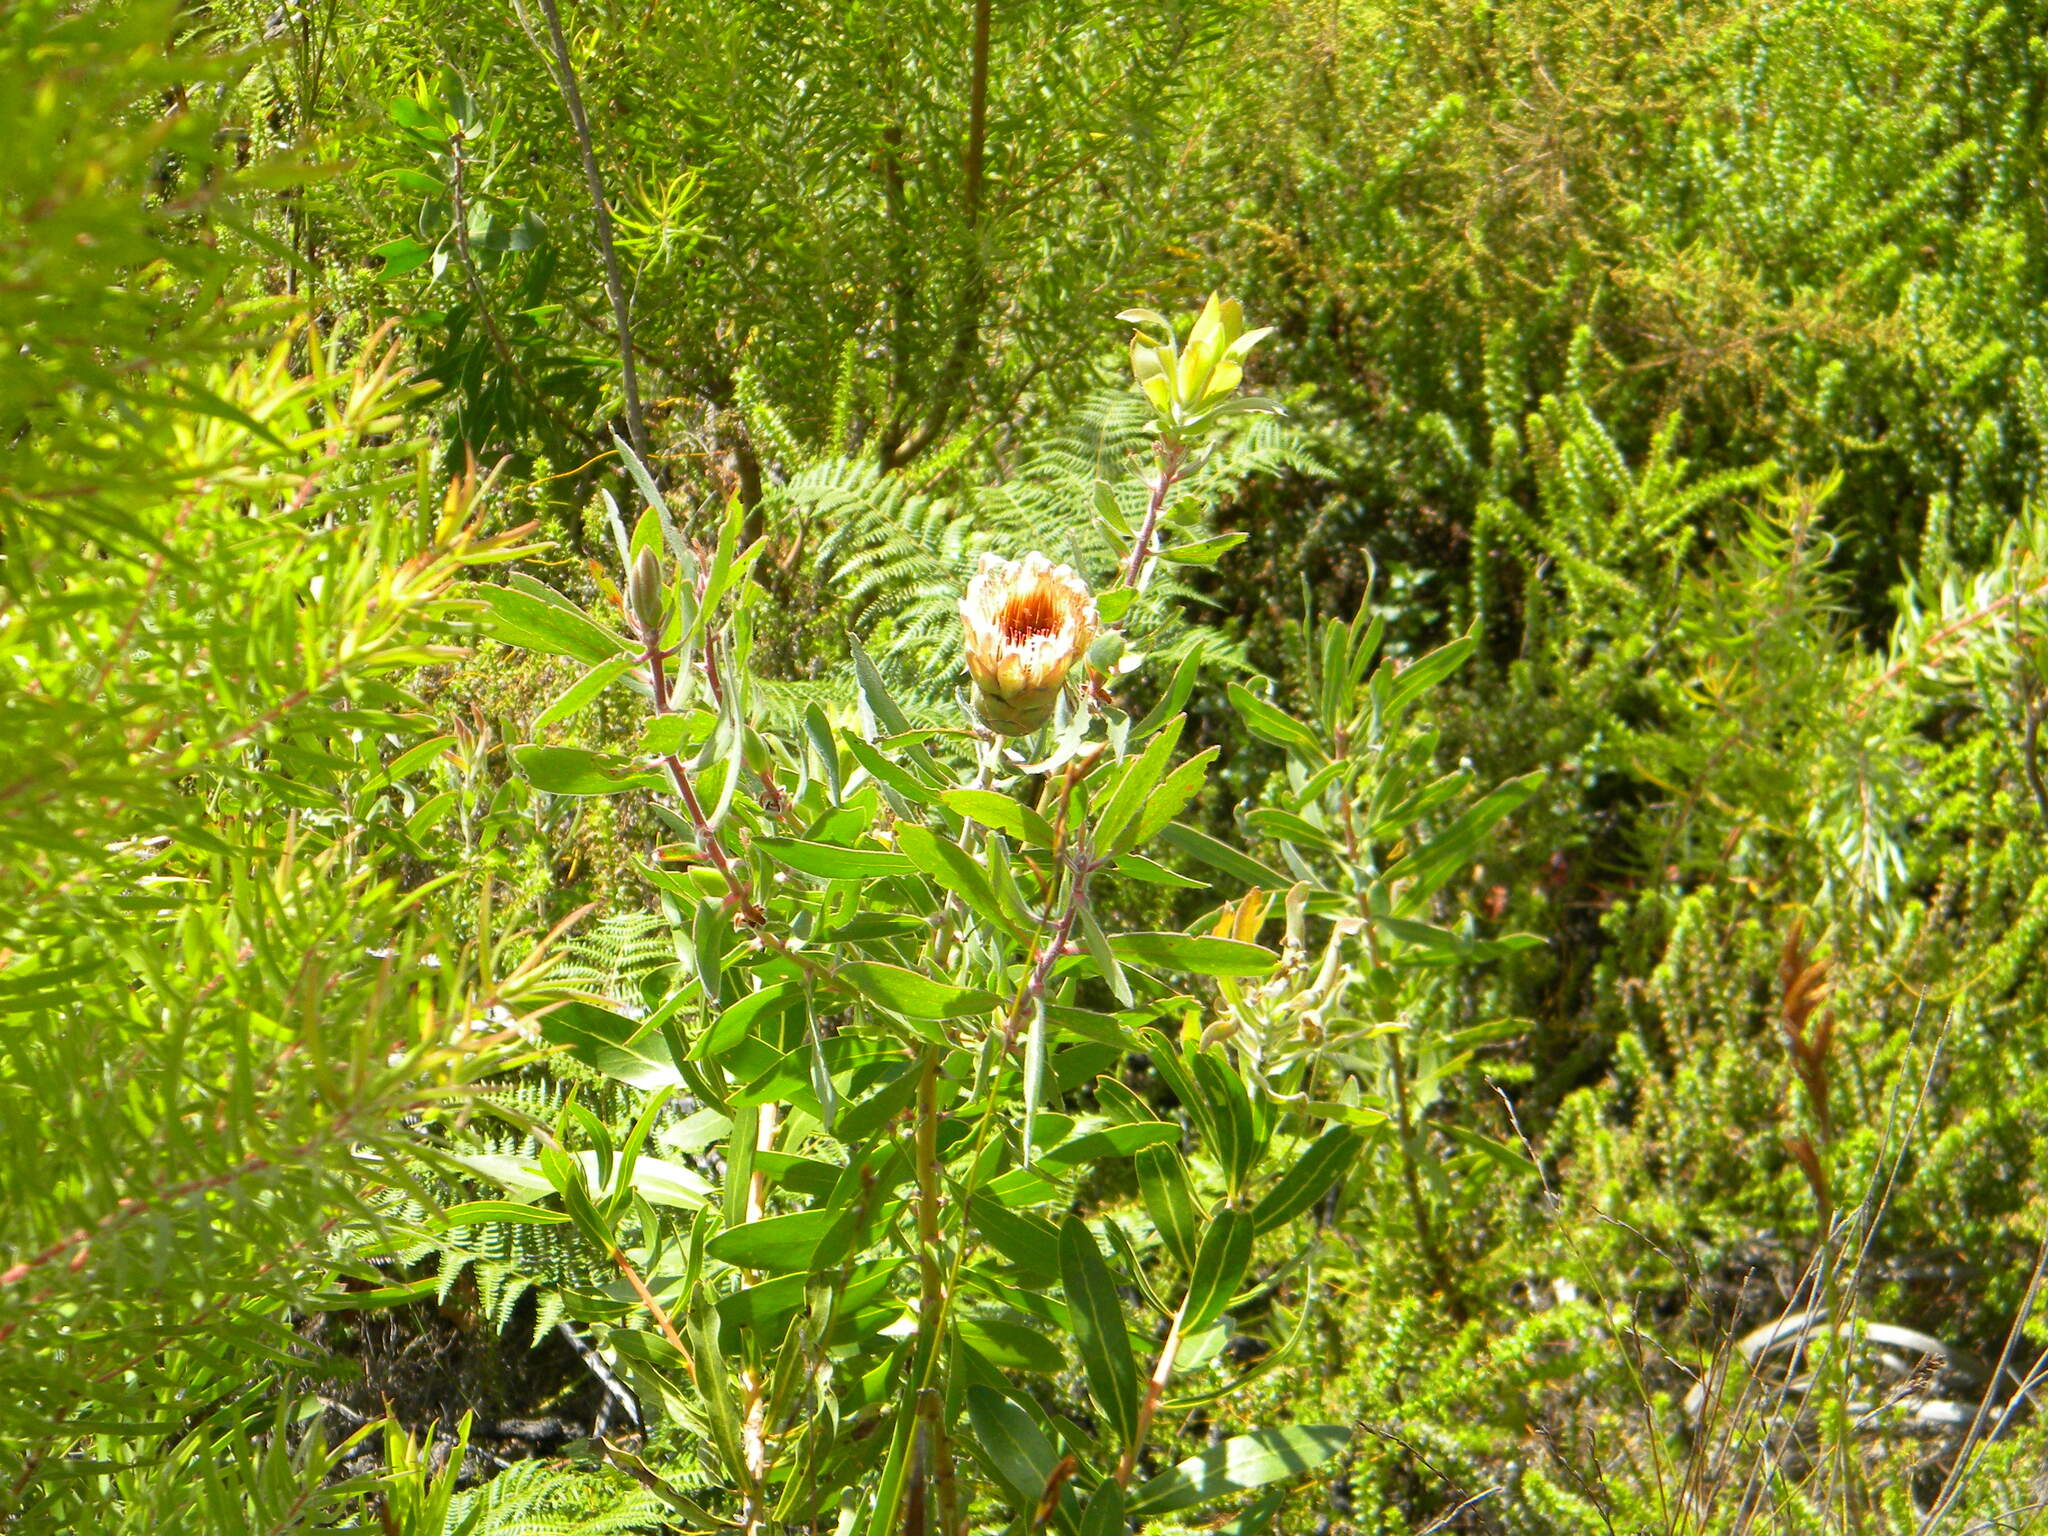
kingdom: Plantae
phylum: Tracheophyta
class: Magnoliopsida
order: Proteales
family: Proteaceae
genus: Protea
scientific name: Protea mundii
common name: Forest sugarbush
